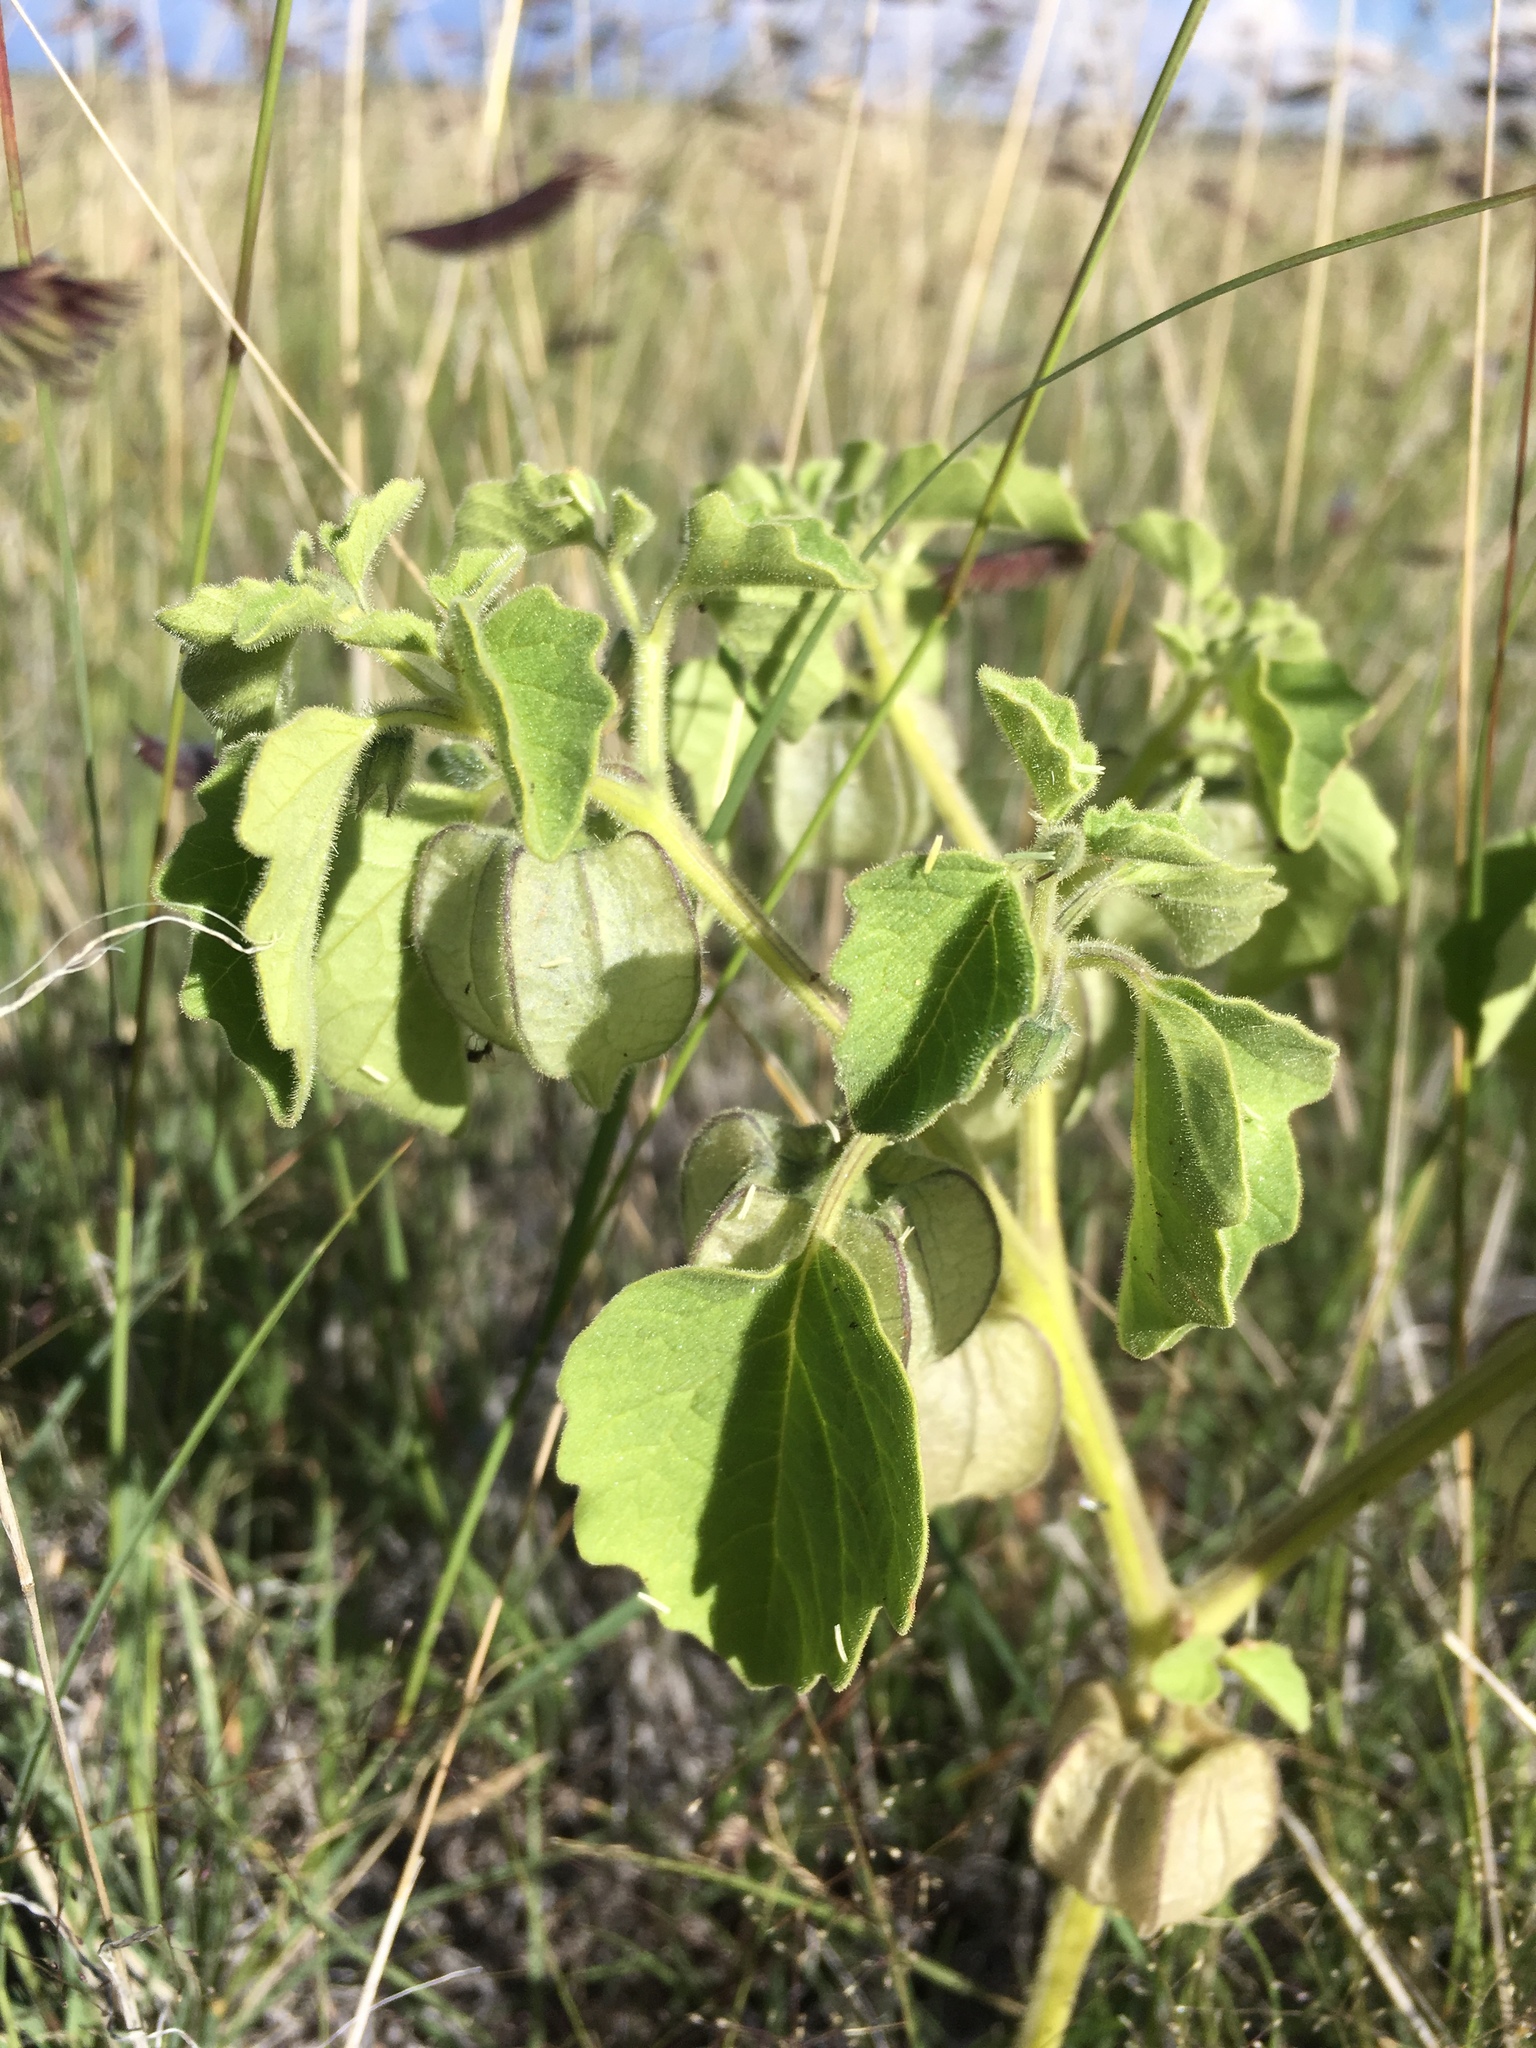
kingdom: Plantae
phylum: Tracheophyta
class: Magnoliopsida
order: Solanales
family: Solanaceae
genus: Physalis
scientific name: Physalis neomexicana
